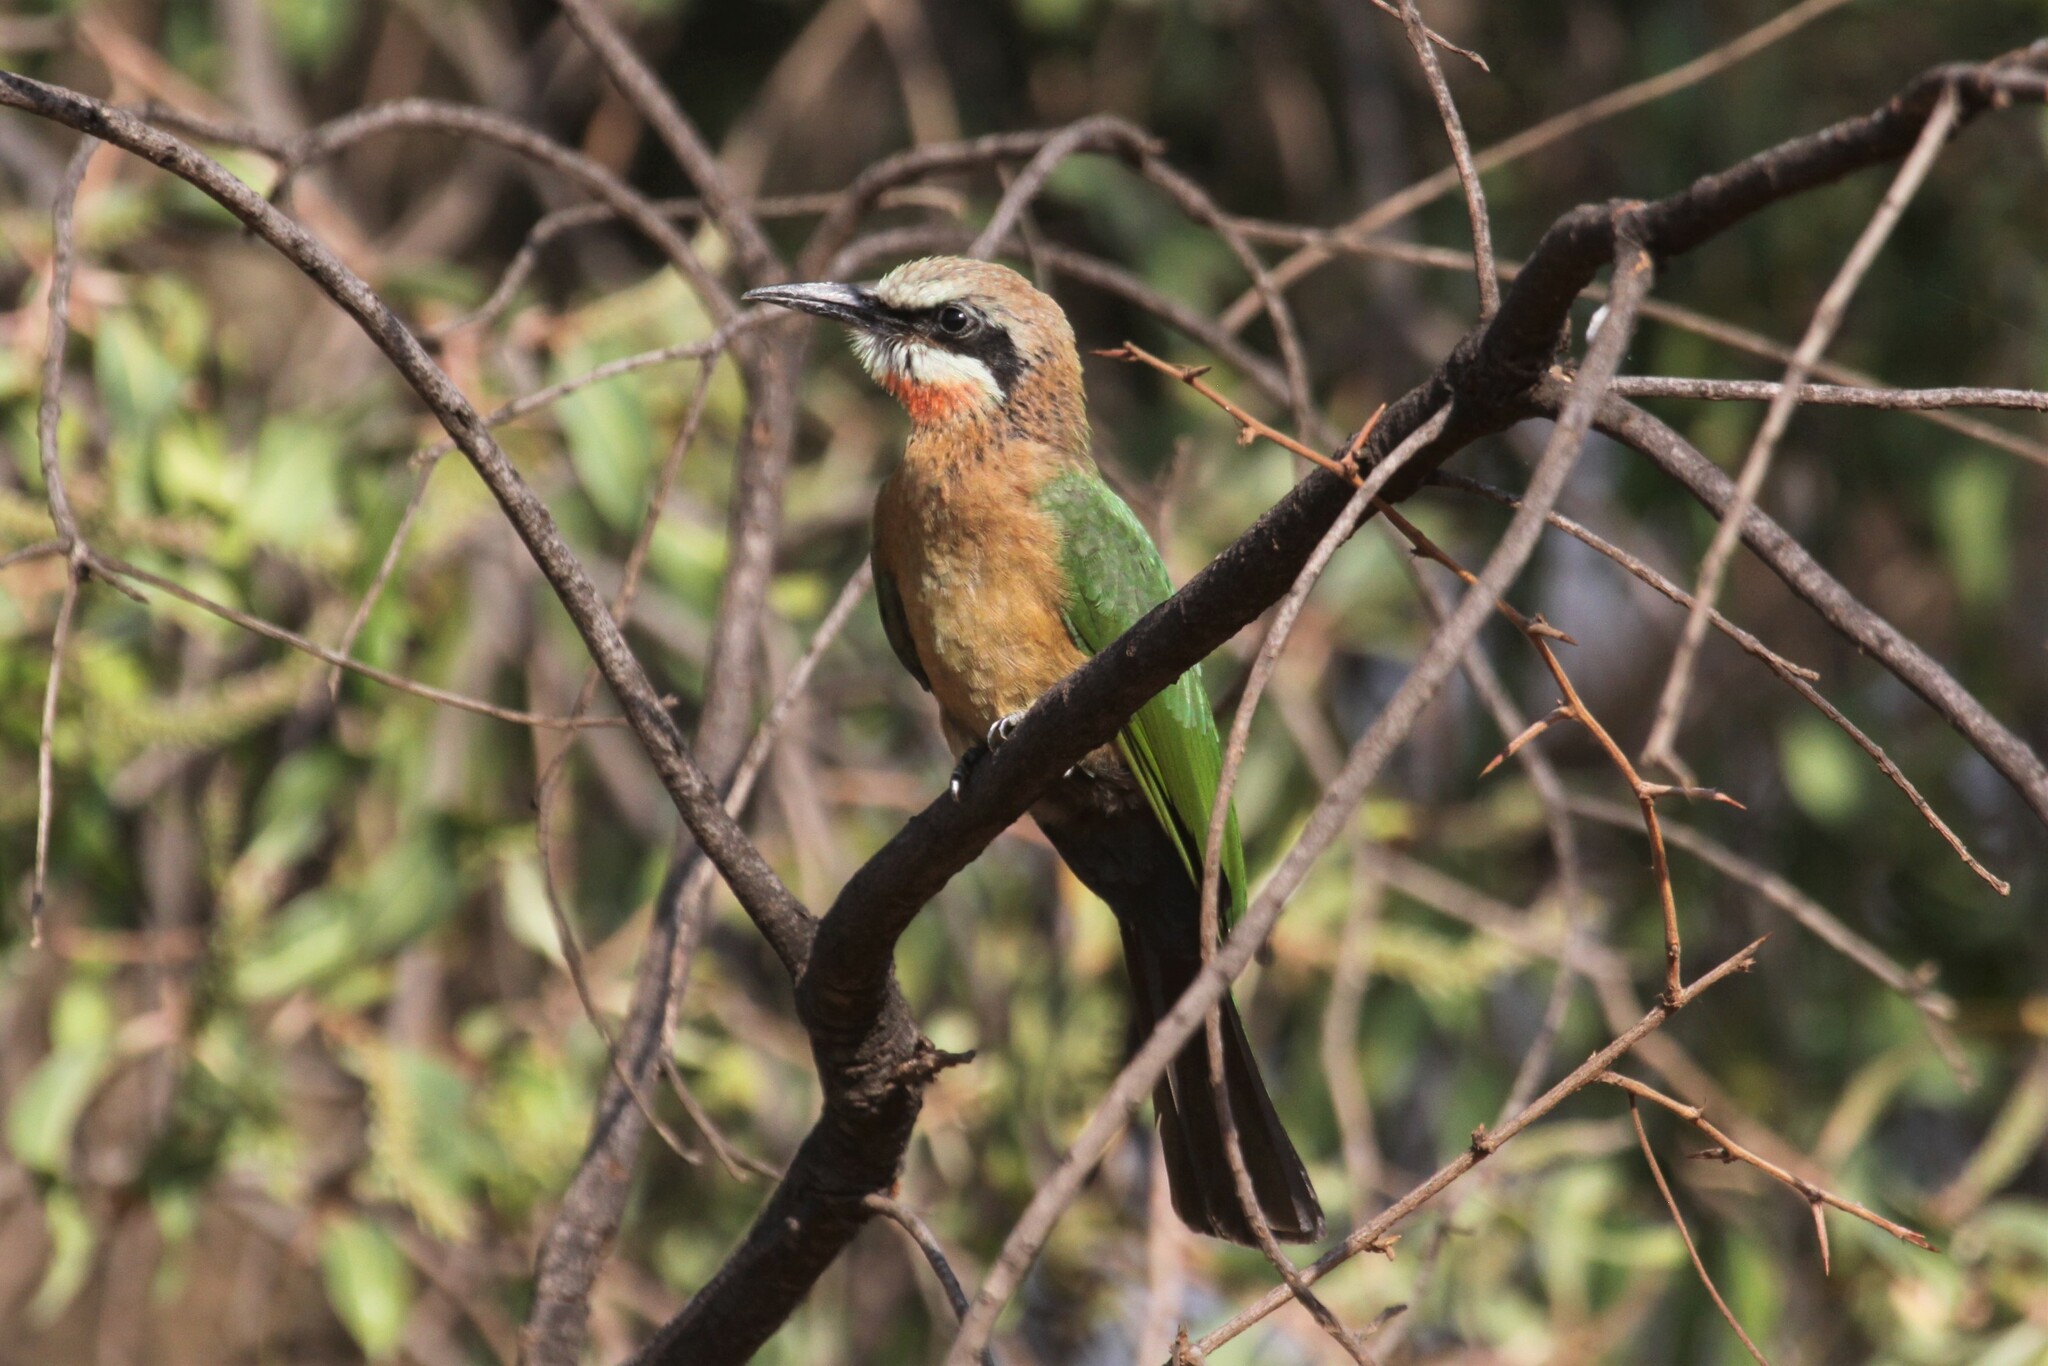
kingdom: Animalia
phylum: Chordata
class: Aves
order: Coraciiformes
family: Meropidae
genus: Merops
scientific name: Merops bullockoides
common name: White-fronted bee-eater
